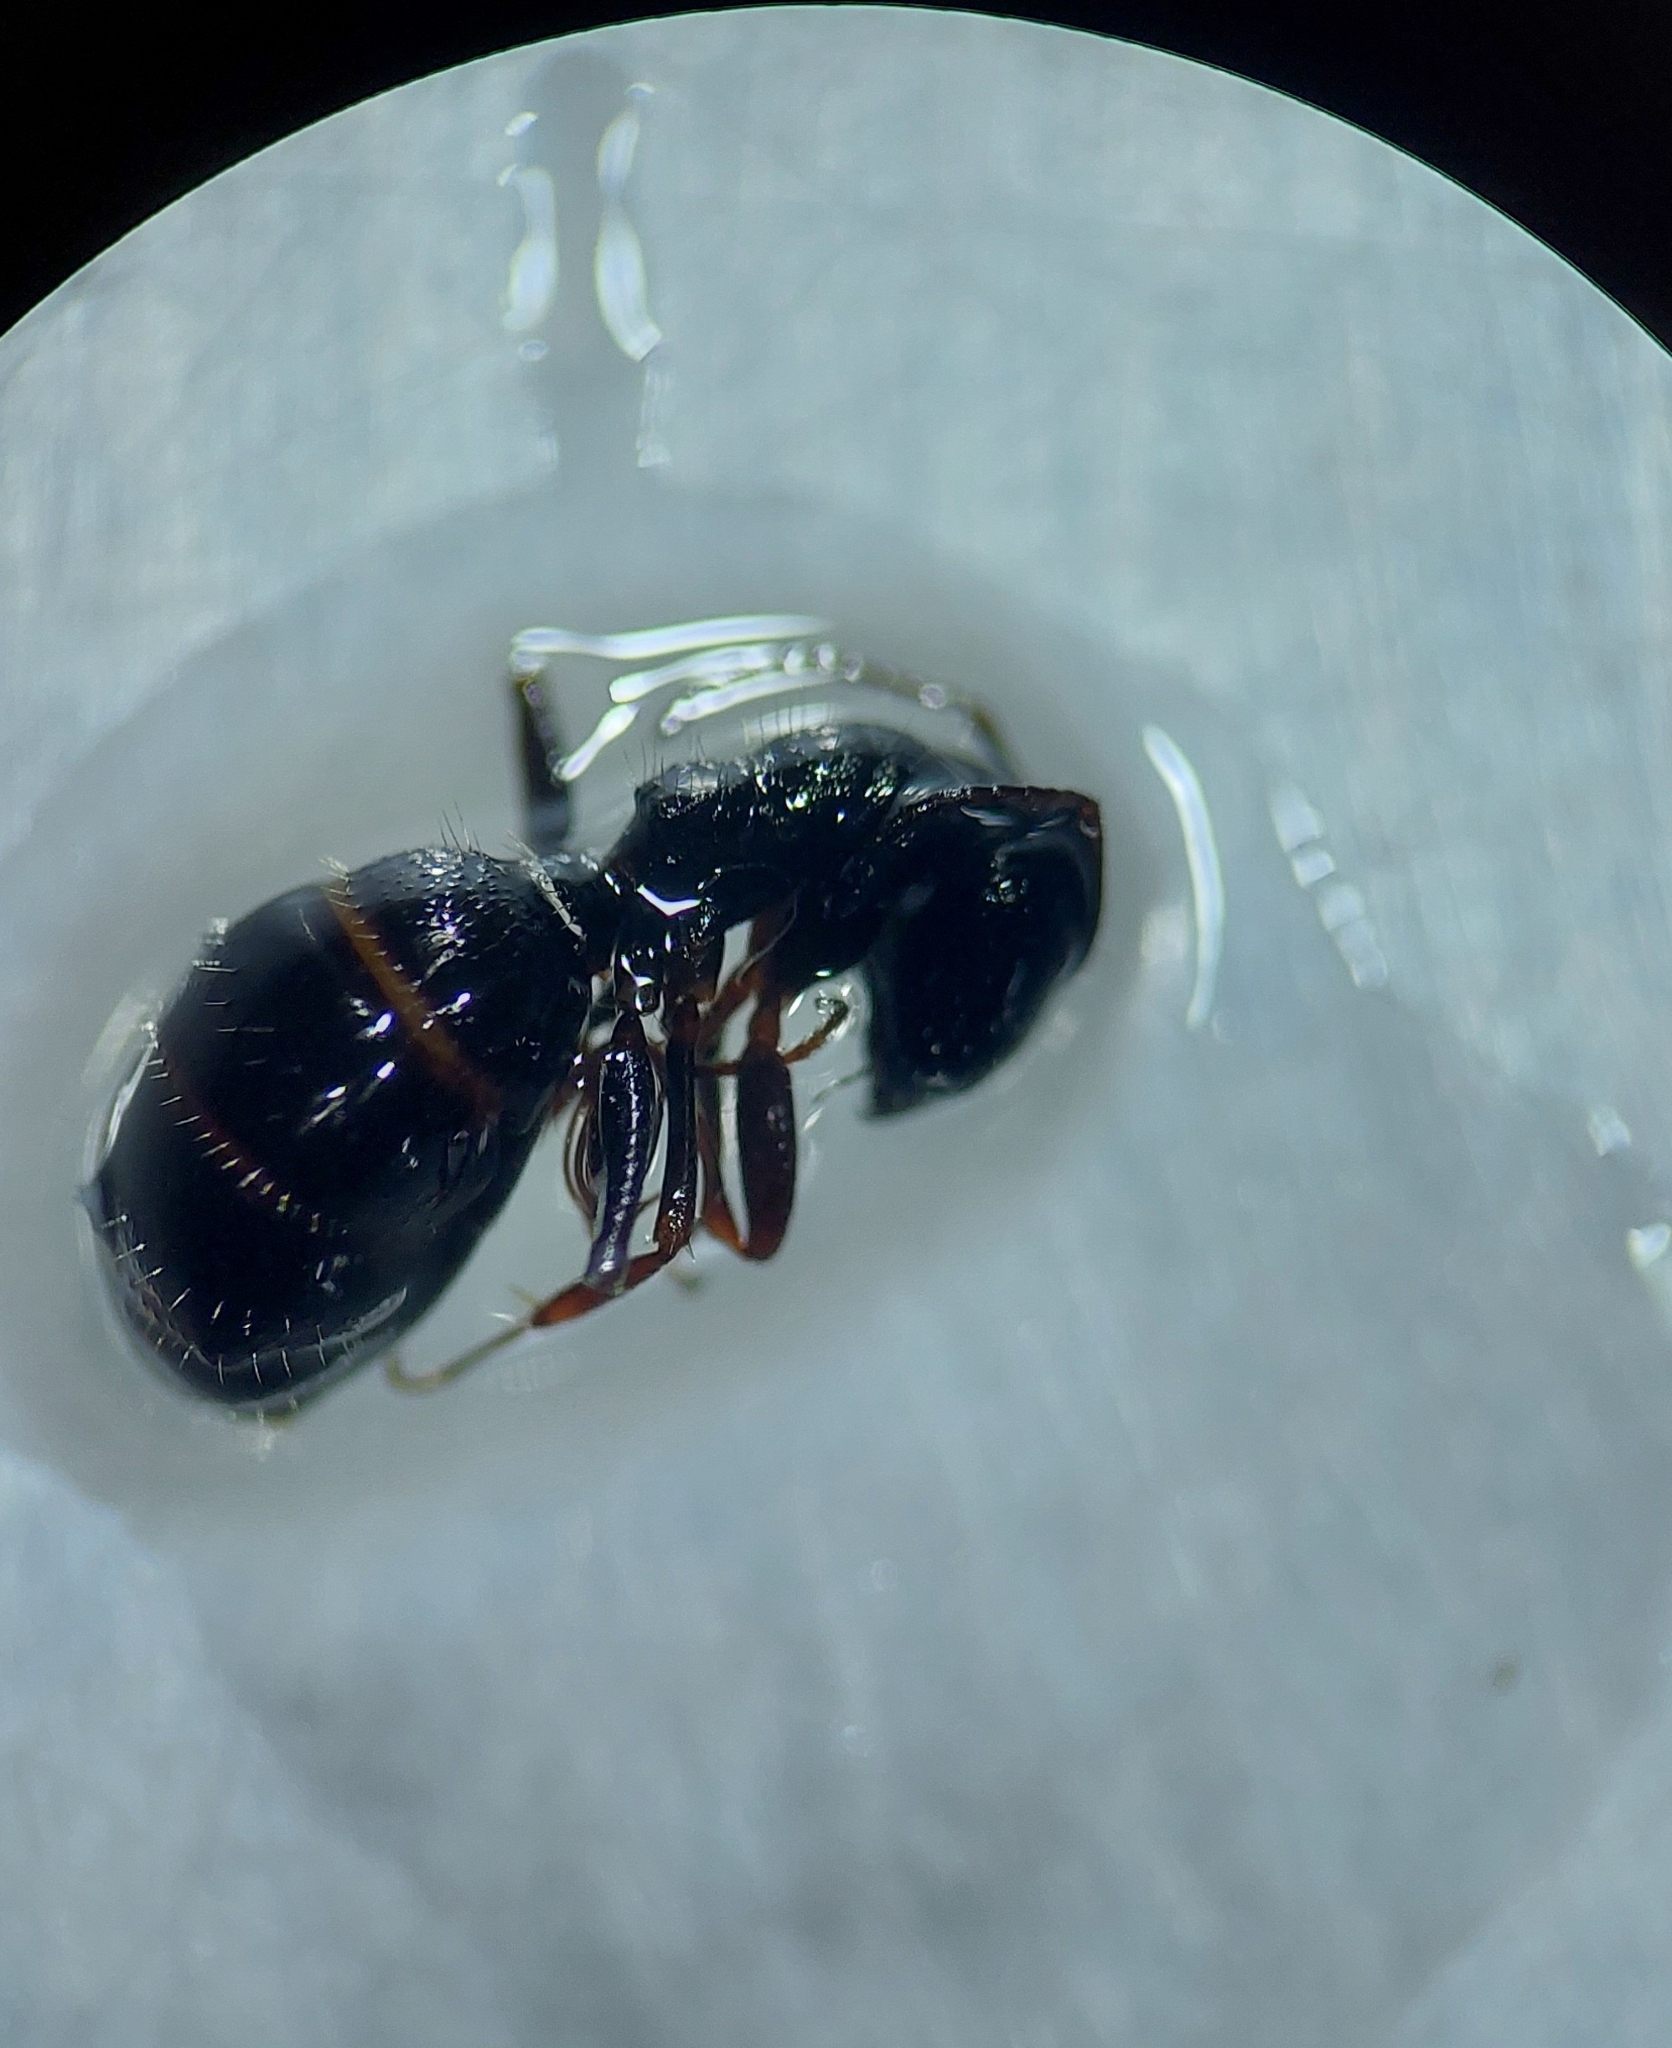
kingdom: Animalia
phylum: Arthropoda
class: Insecta
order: Hymenoptera
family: Formicidae
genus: Camponotus
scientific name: Camponotus piceus
